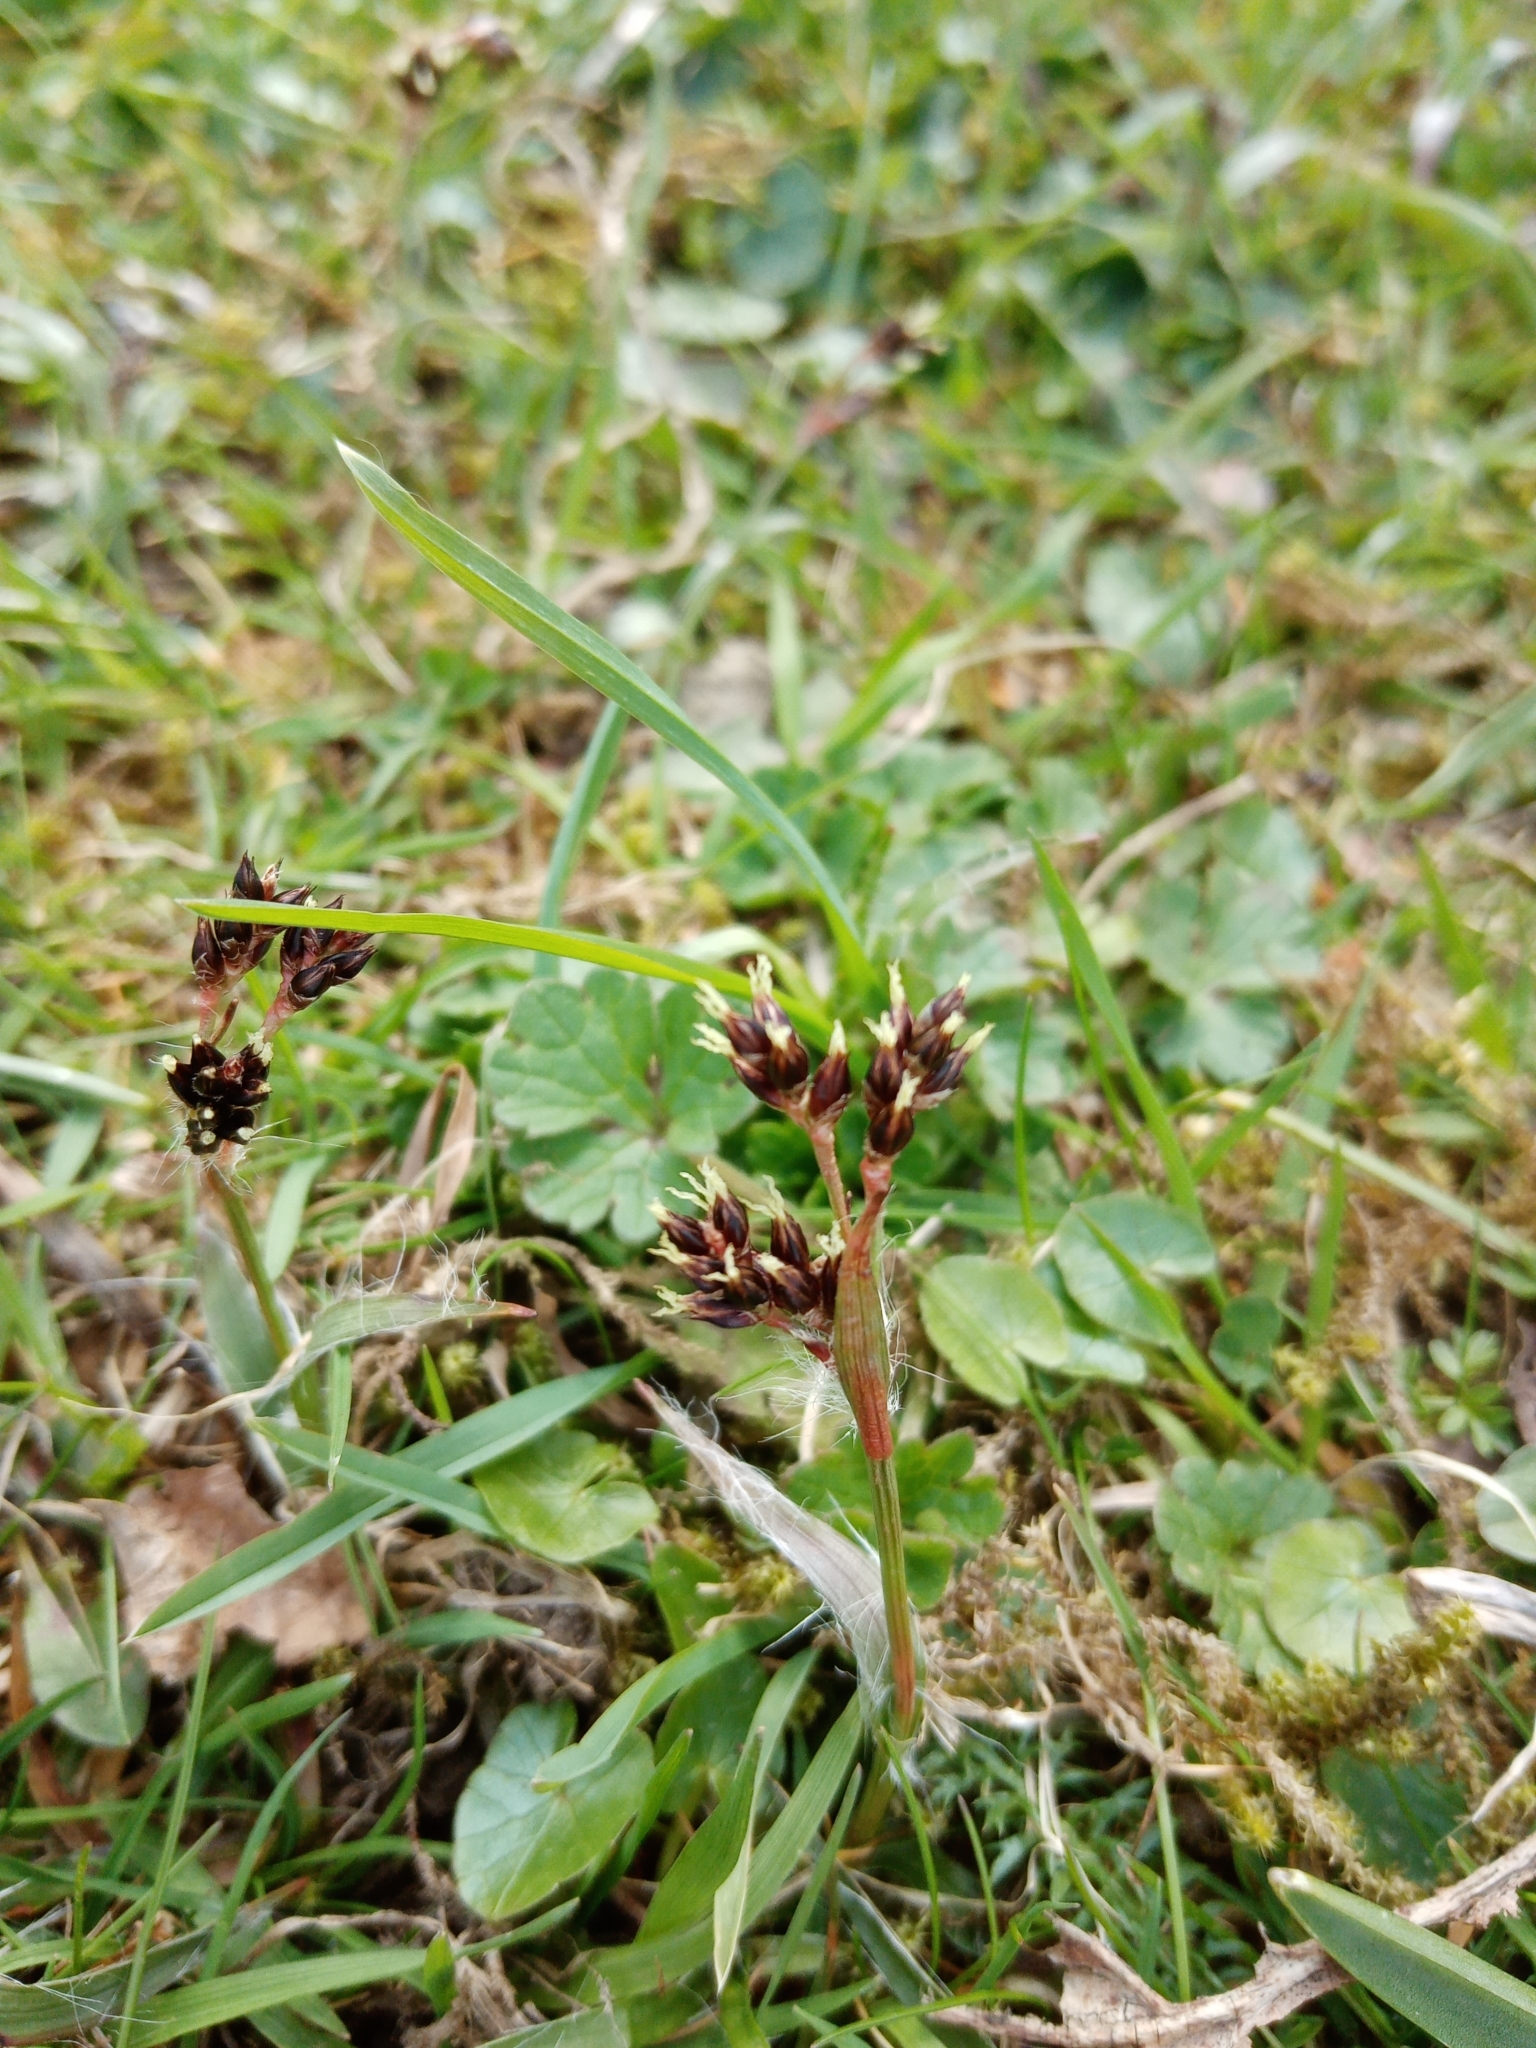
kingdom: Plantae
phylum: Tracheophyta
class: Liliopsida
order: Poales
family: Juncaceae
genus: Luzula
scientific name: Luzula campestris
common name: Field wood-rush
